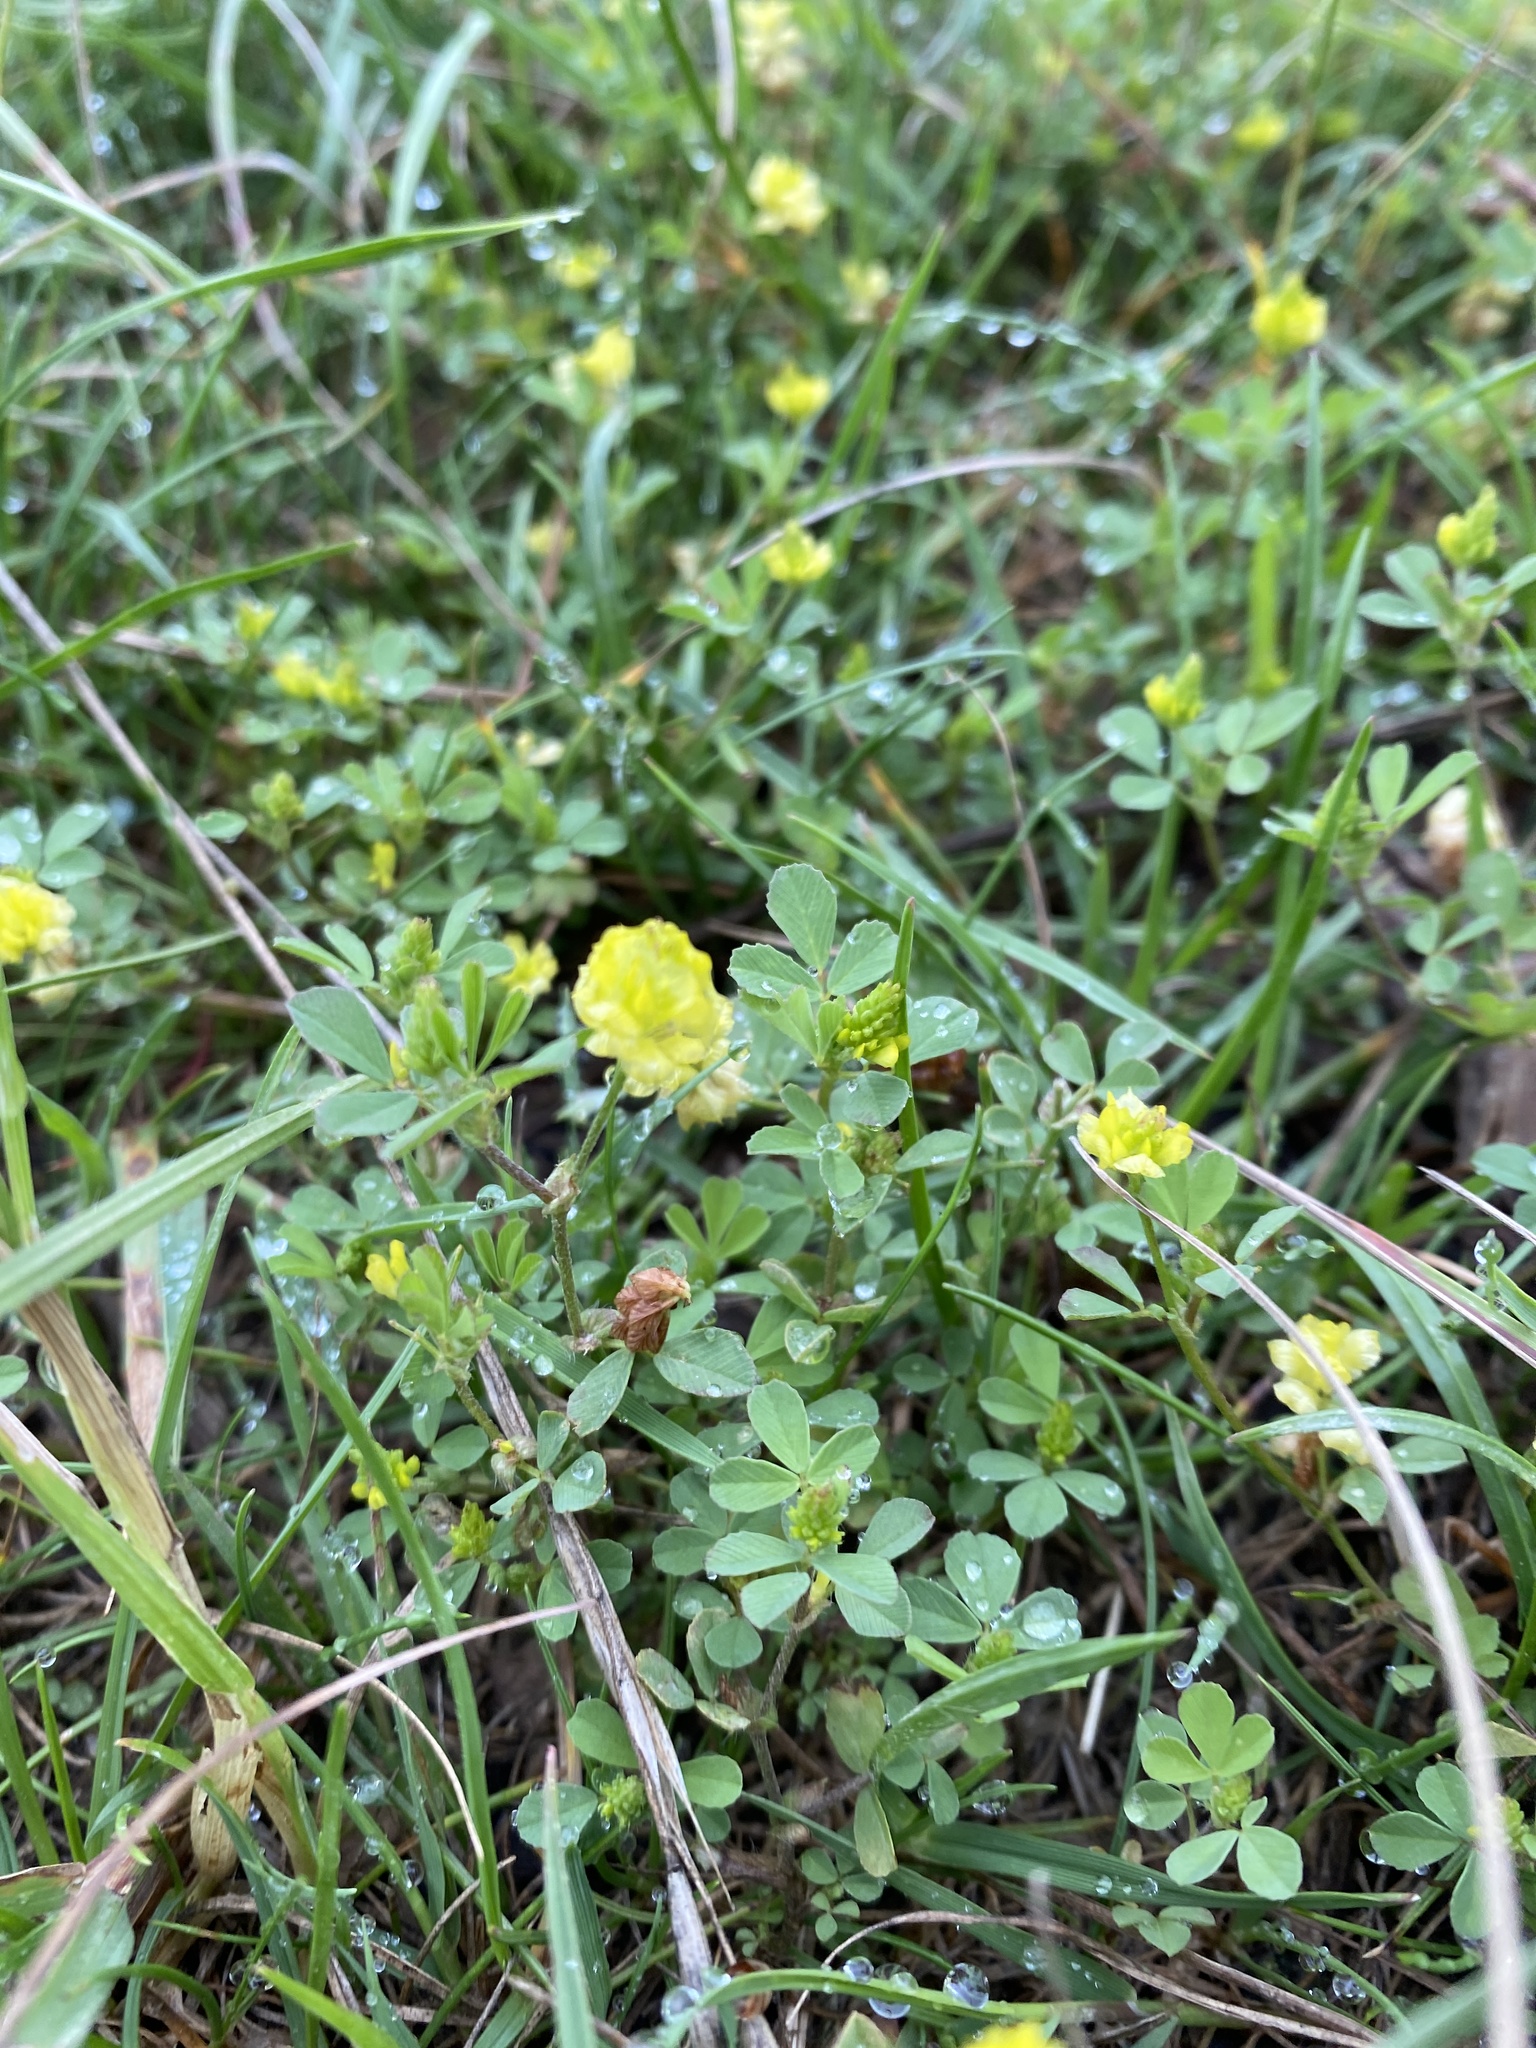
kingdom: Plantae
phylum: Tracheophyta
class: Magnoliopsida
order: Fabales
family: Fabaceae
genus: Trifolium
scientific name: Trifolium campestre
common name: Field clover
